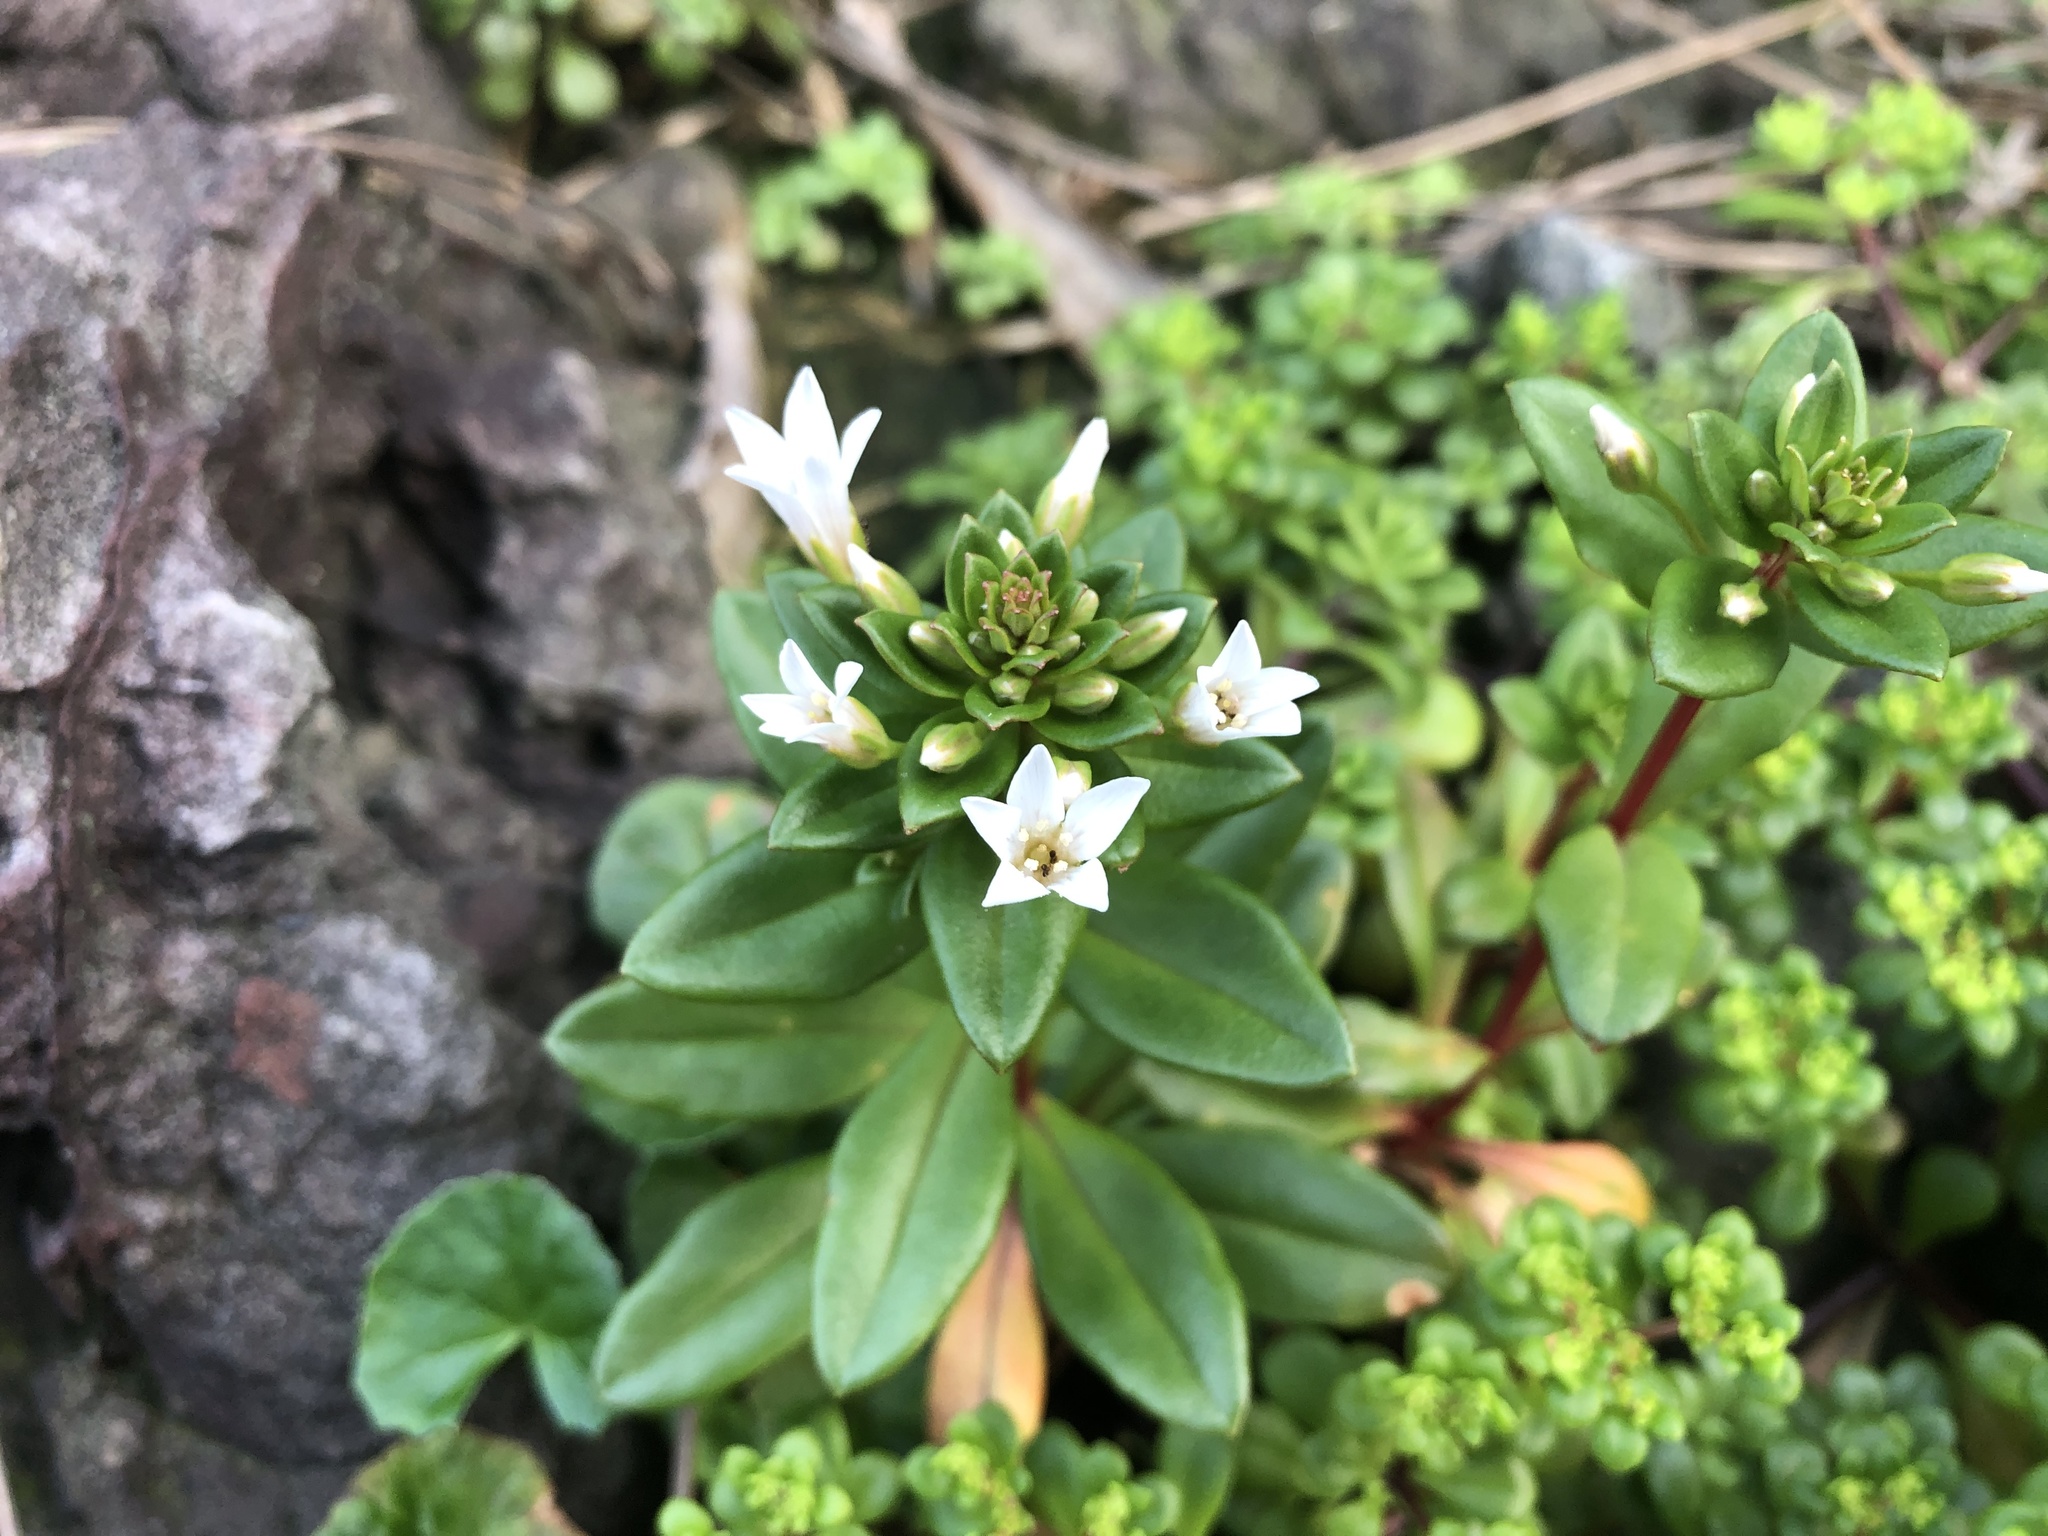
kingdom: Plantae
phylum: Tracheophyta
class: Magnoliopsida
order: Ericales
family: Primulaceae
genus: Lysimachia
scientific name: Lysimachia mauritiana
